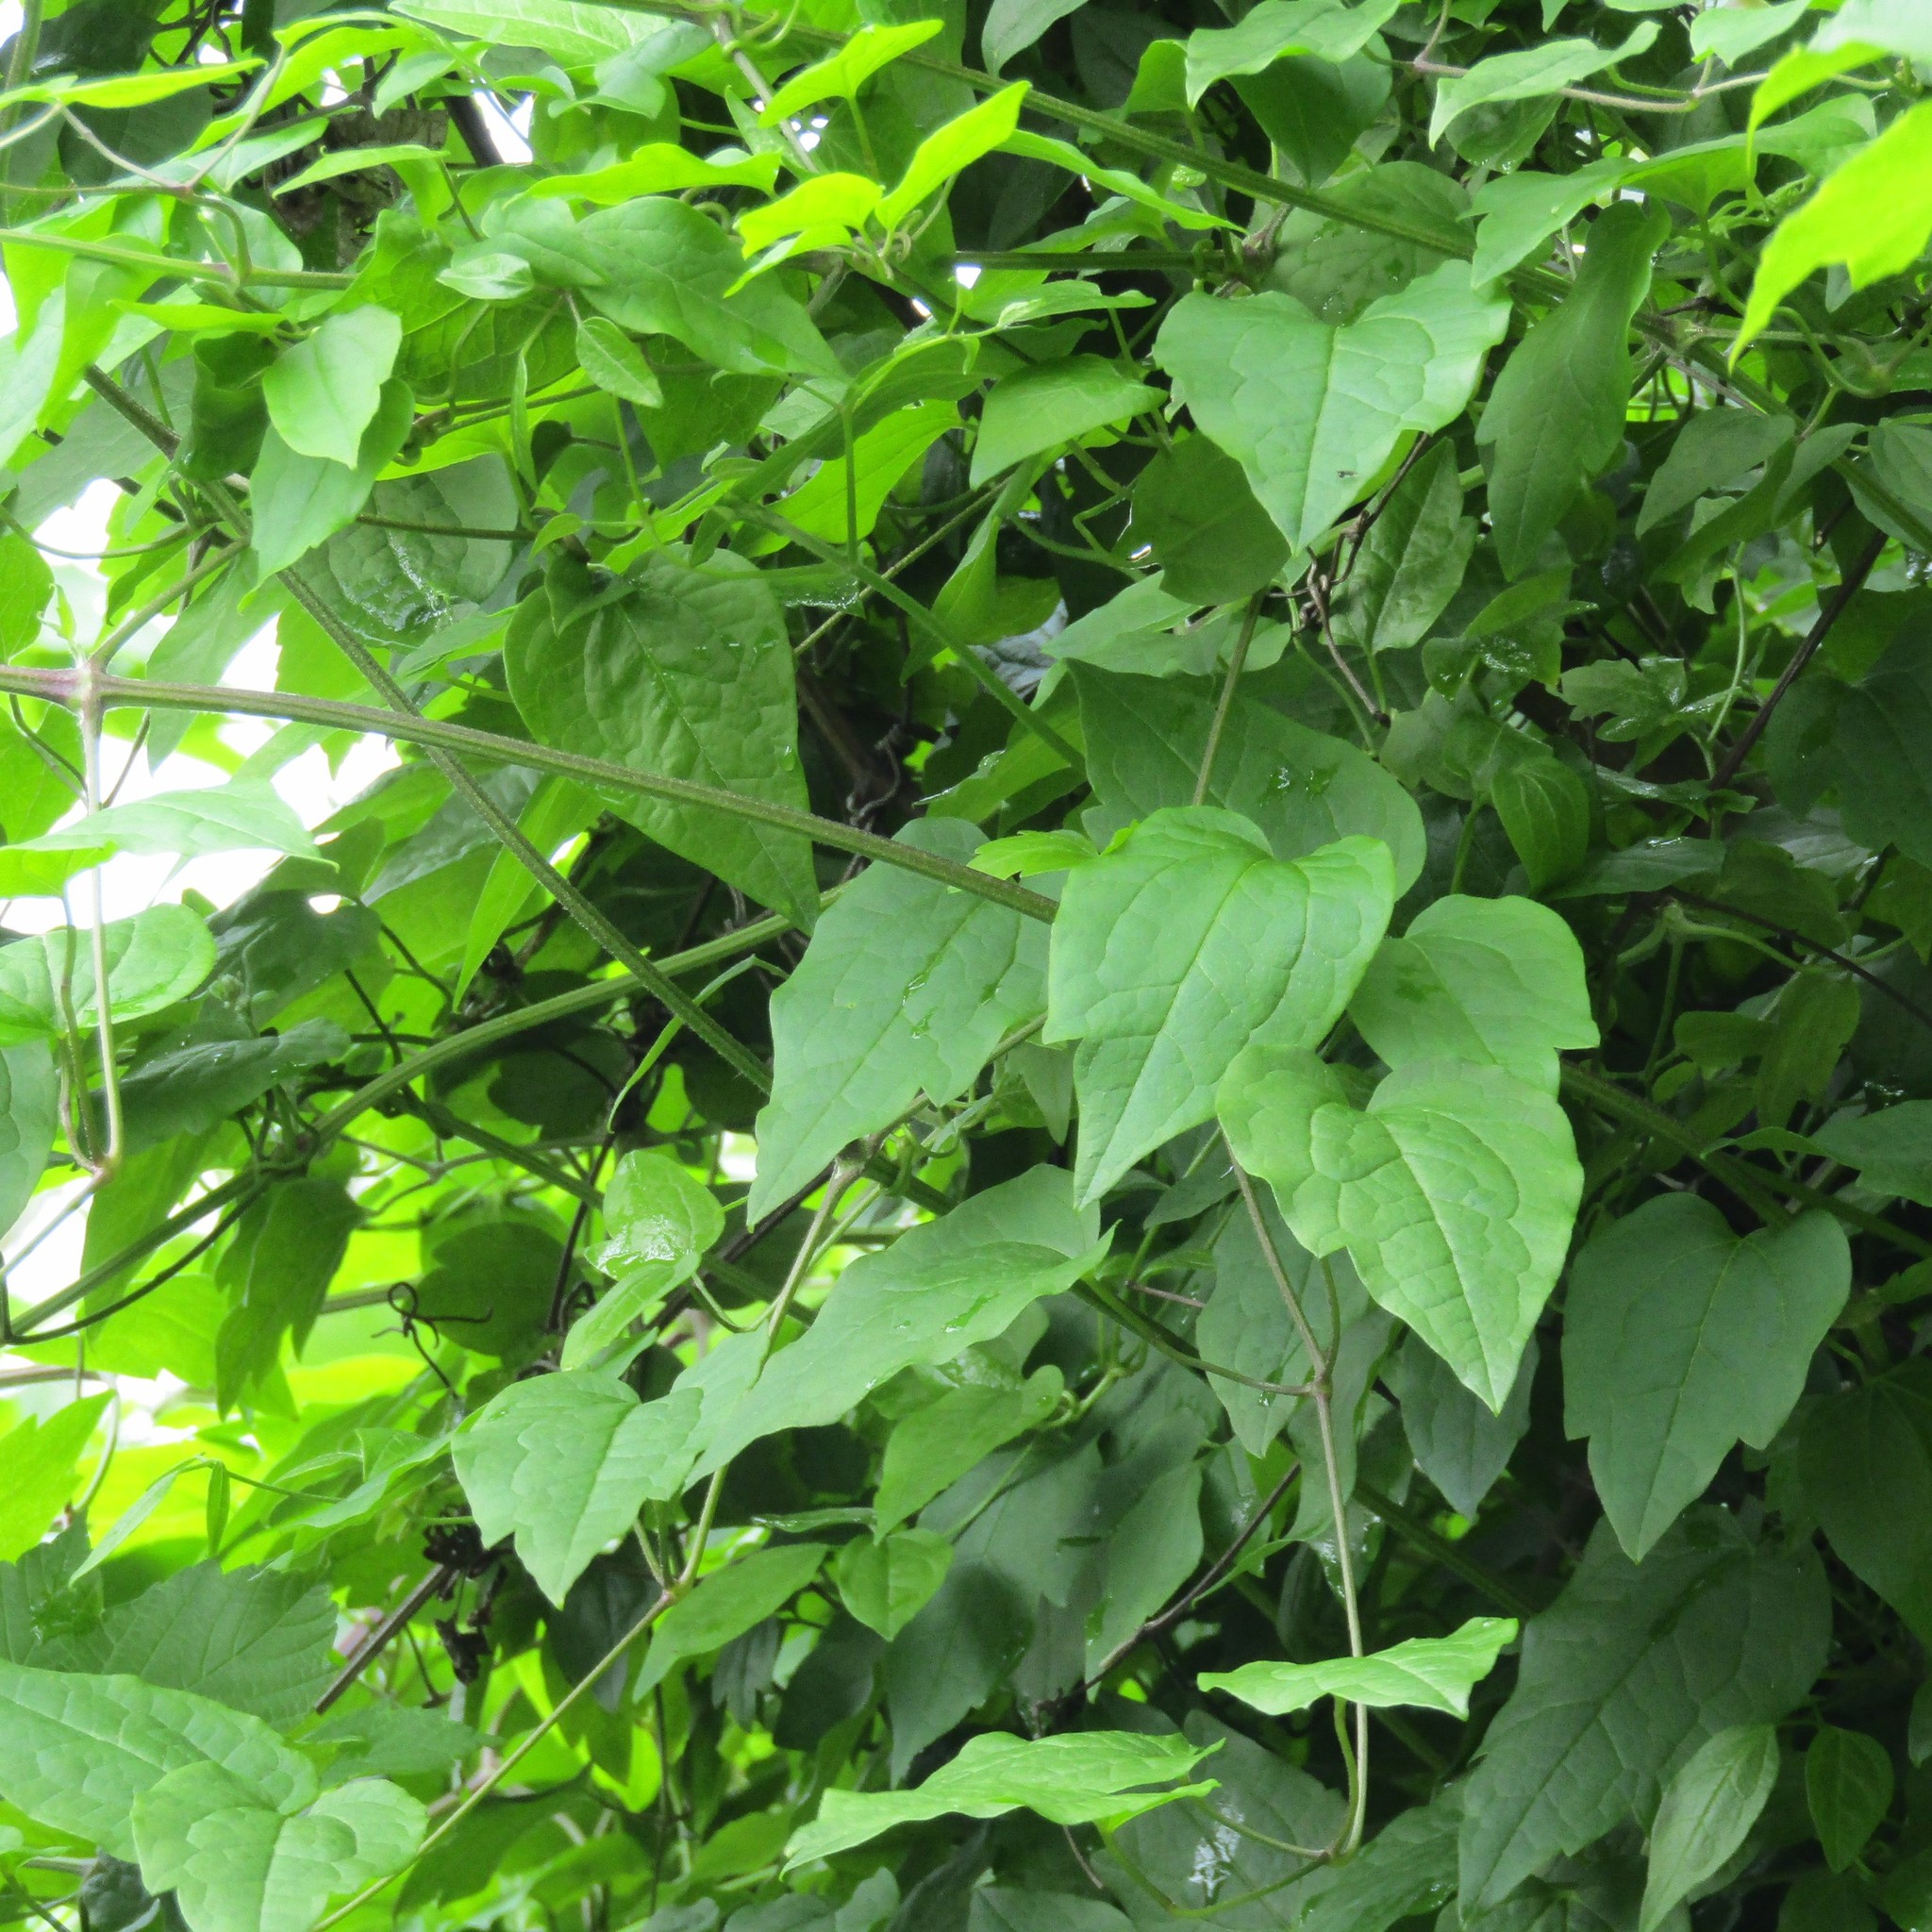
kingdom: Plantae
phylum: Tracheophyta
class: Magnoliopsida
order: Ranunculales
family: Ranunculaceae
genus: Clematis
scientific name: Clematis vitalba
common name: Evergreen clematis
